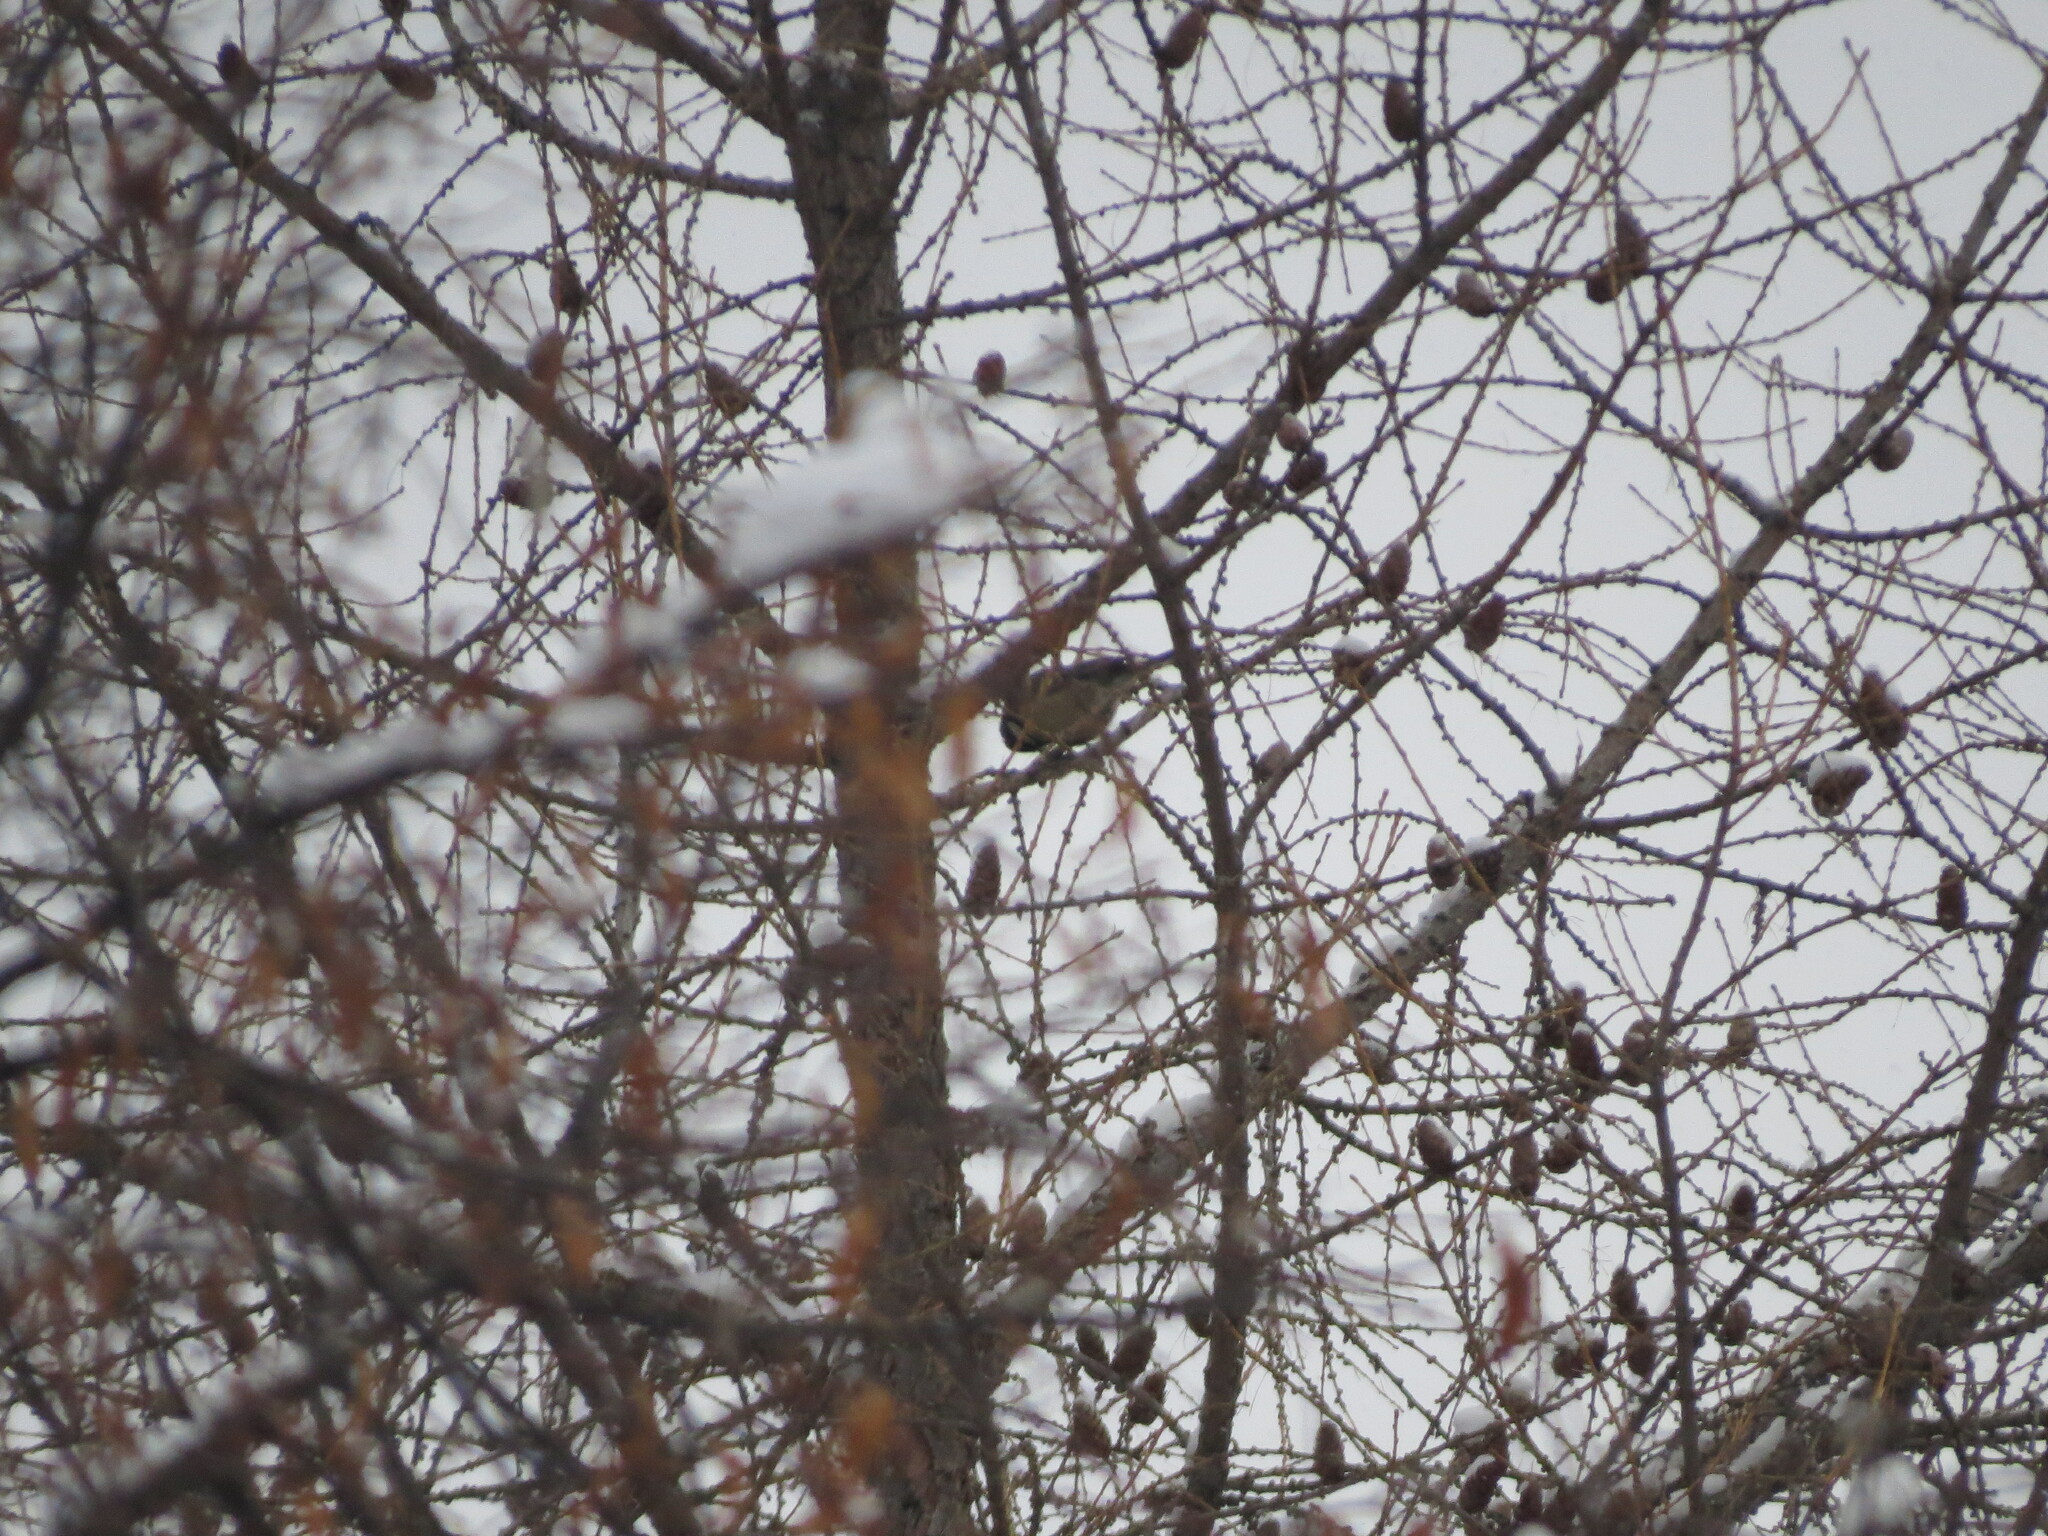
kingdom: Animalia
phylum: Chordata
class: Aves
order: Passeriformes
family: Paridae
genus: Parus
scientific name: Parus major
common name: Great tit
